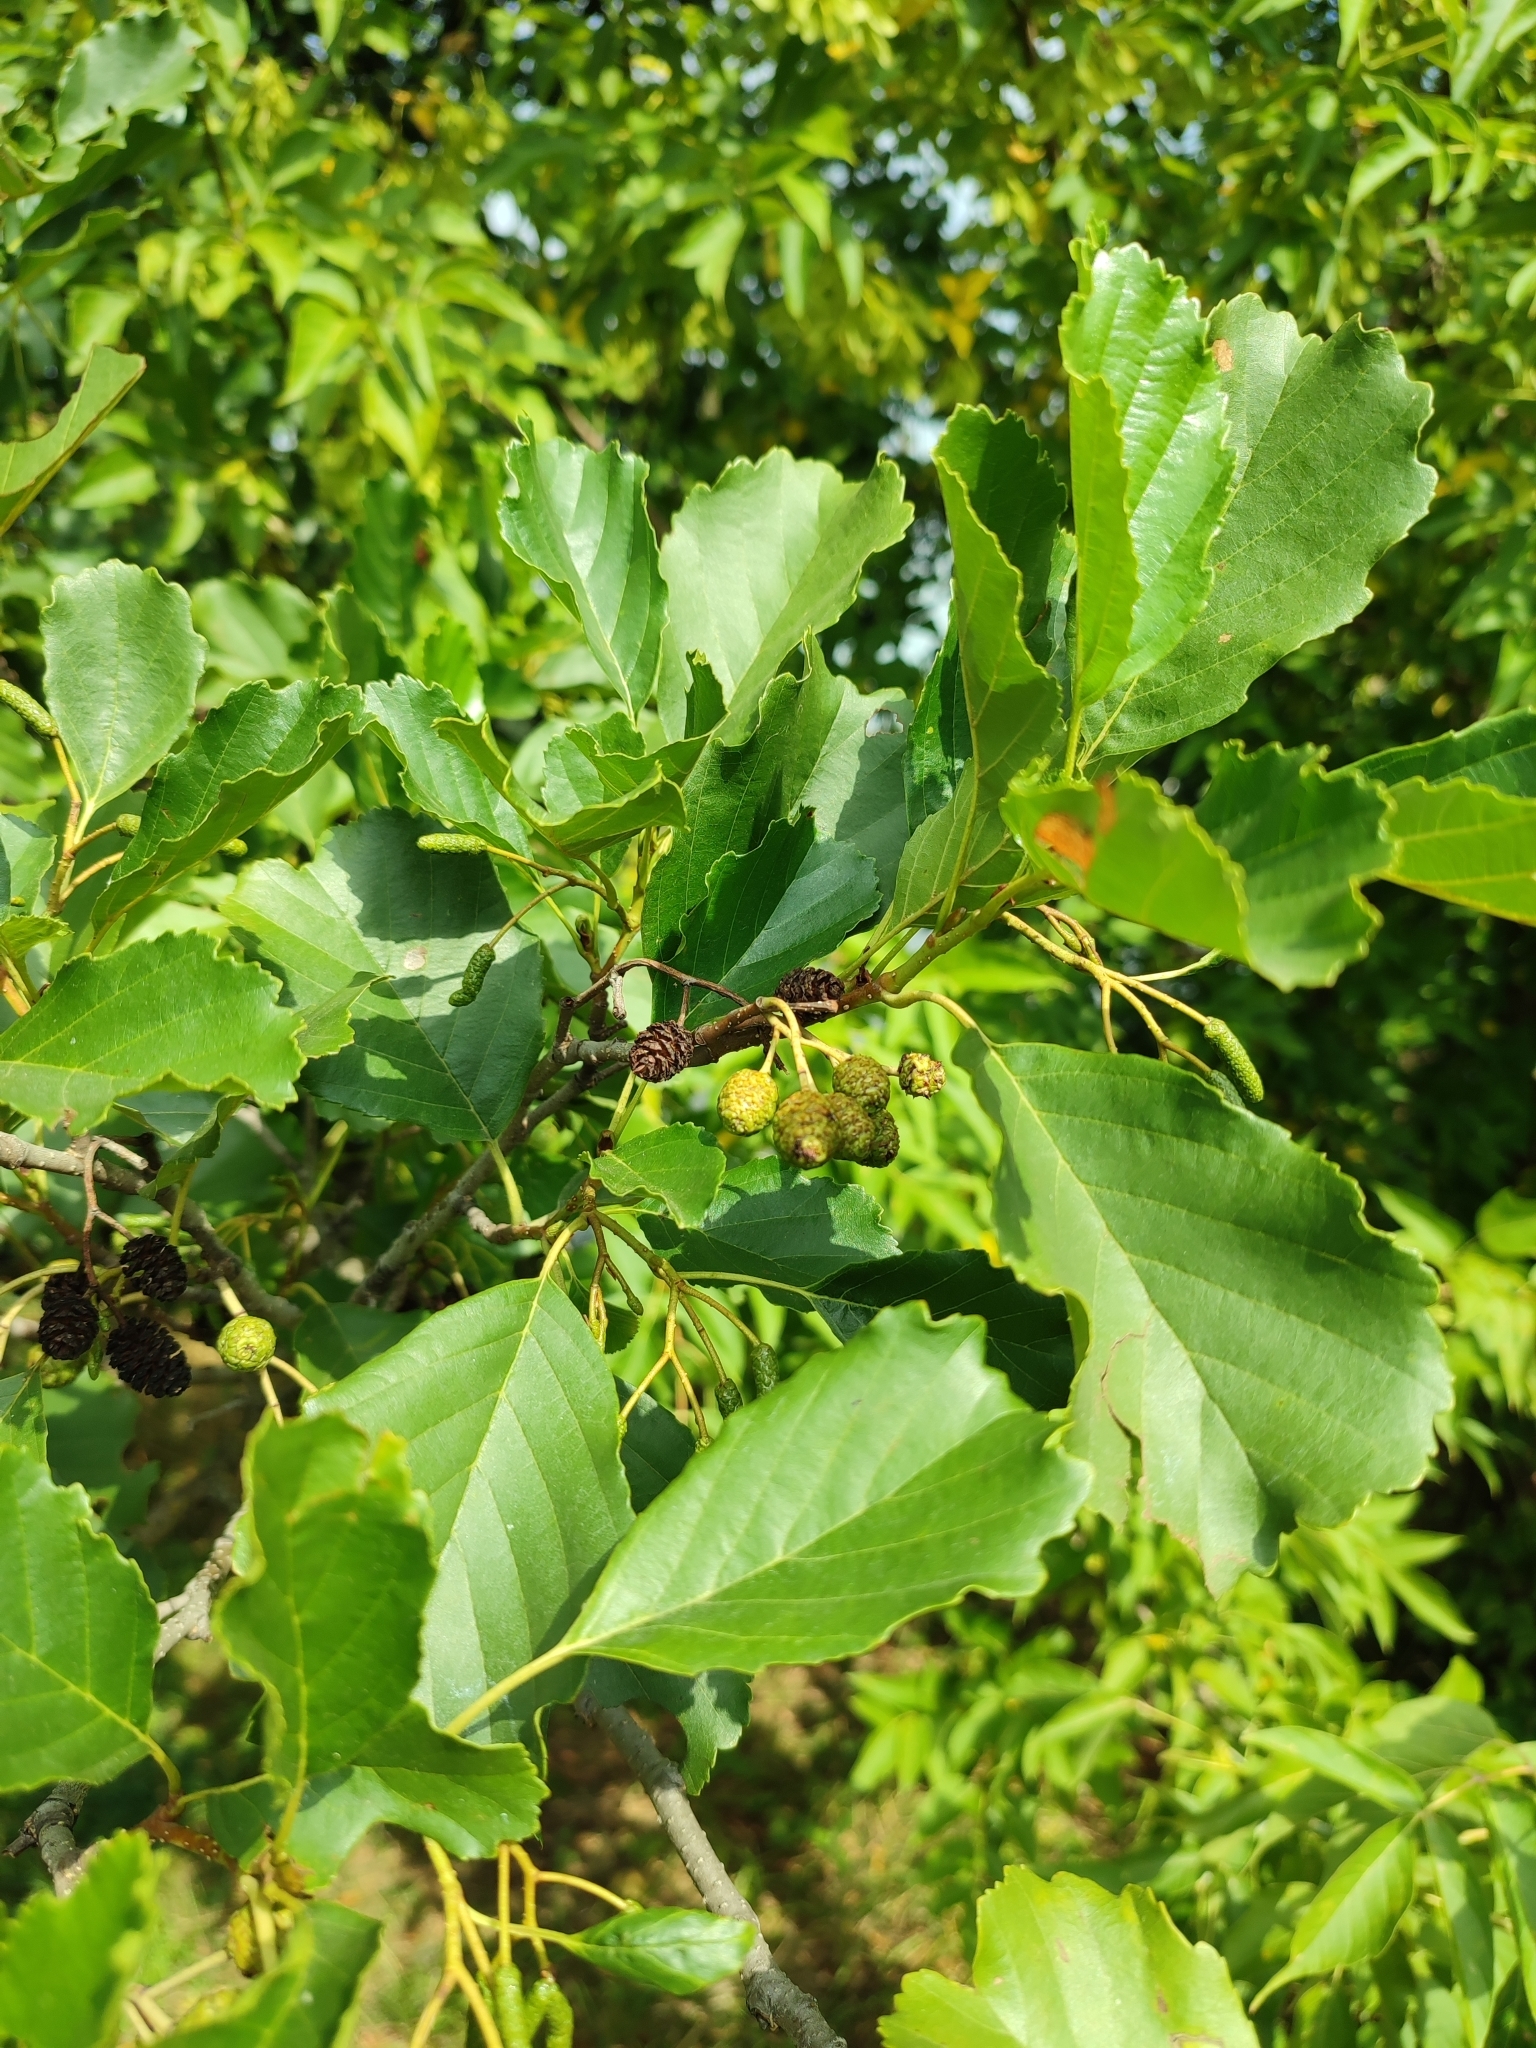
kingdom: Plantae
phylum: Tracheophyta
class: Magnoliopsida
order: Fagales
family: Betulaceae
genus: Alnus
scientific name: Alnus glutinosa
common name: Black alder
